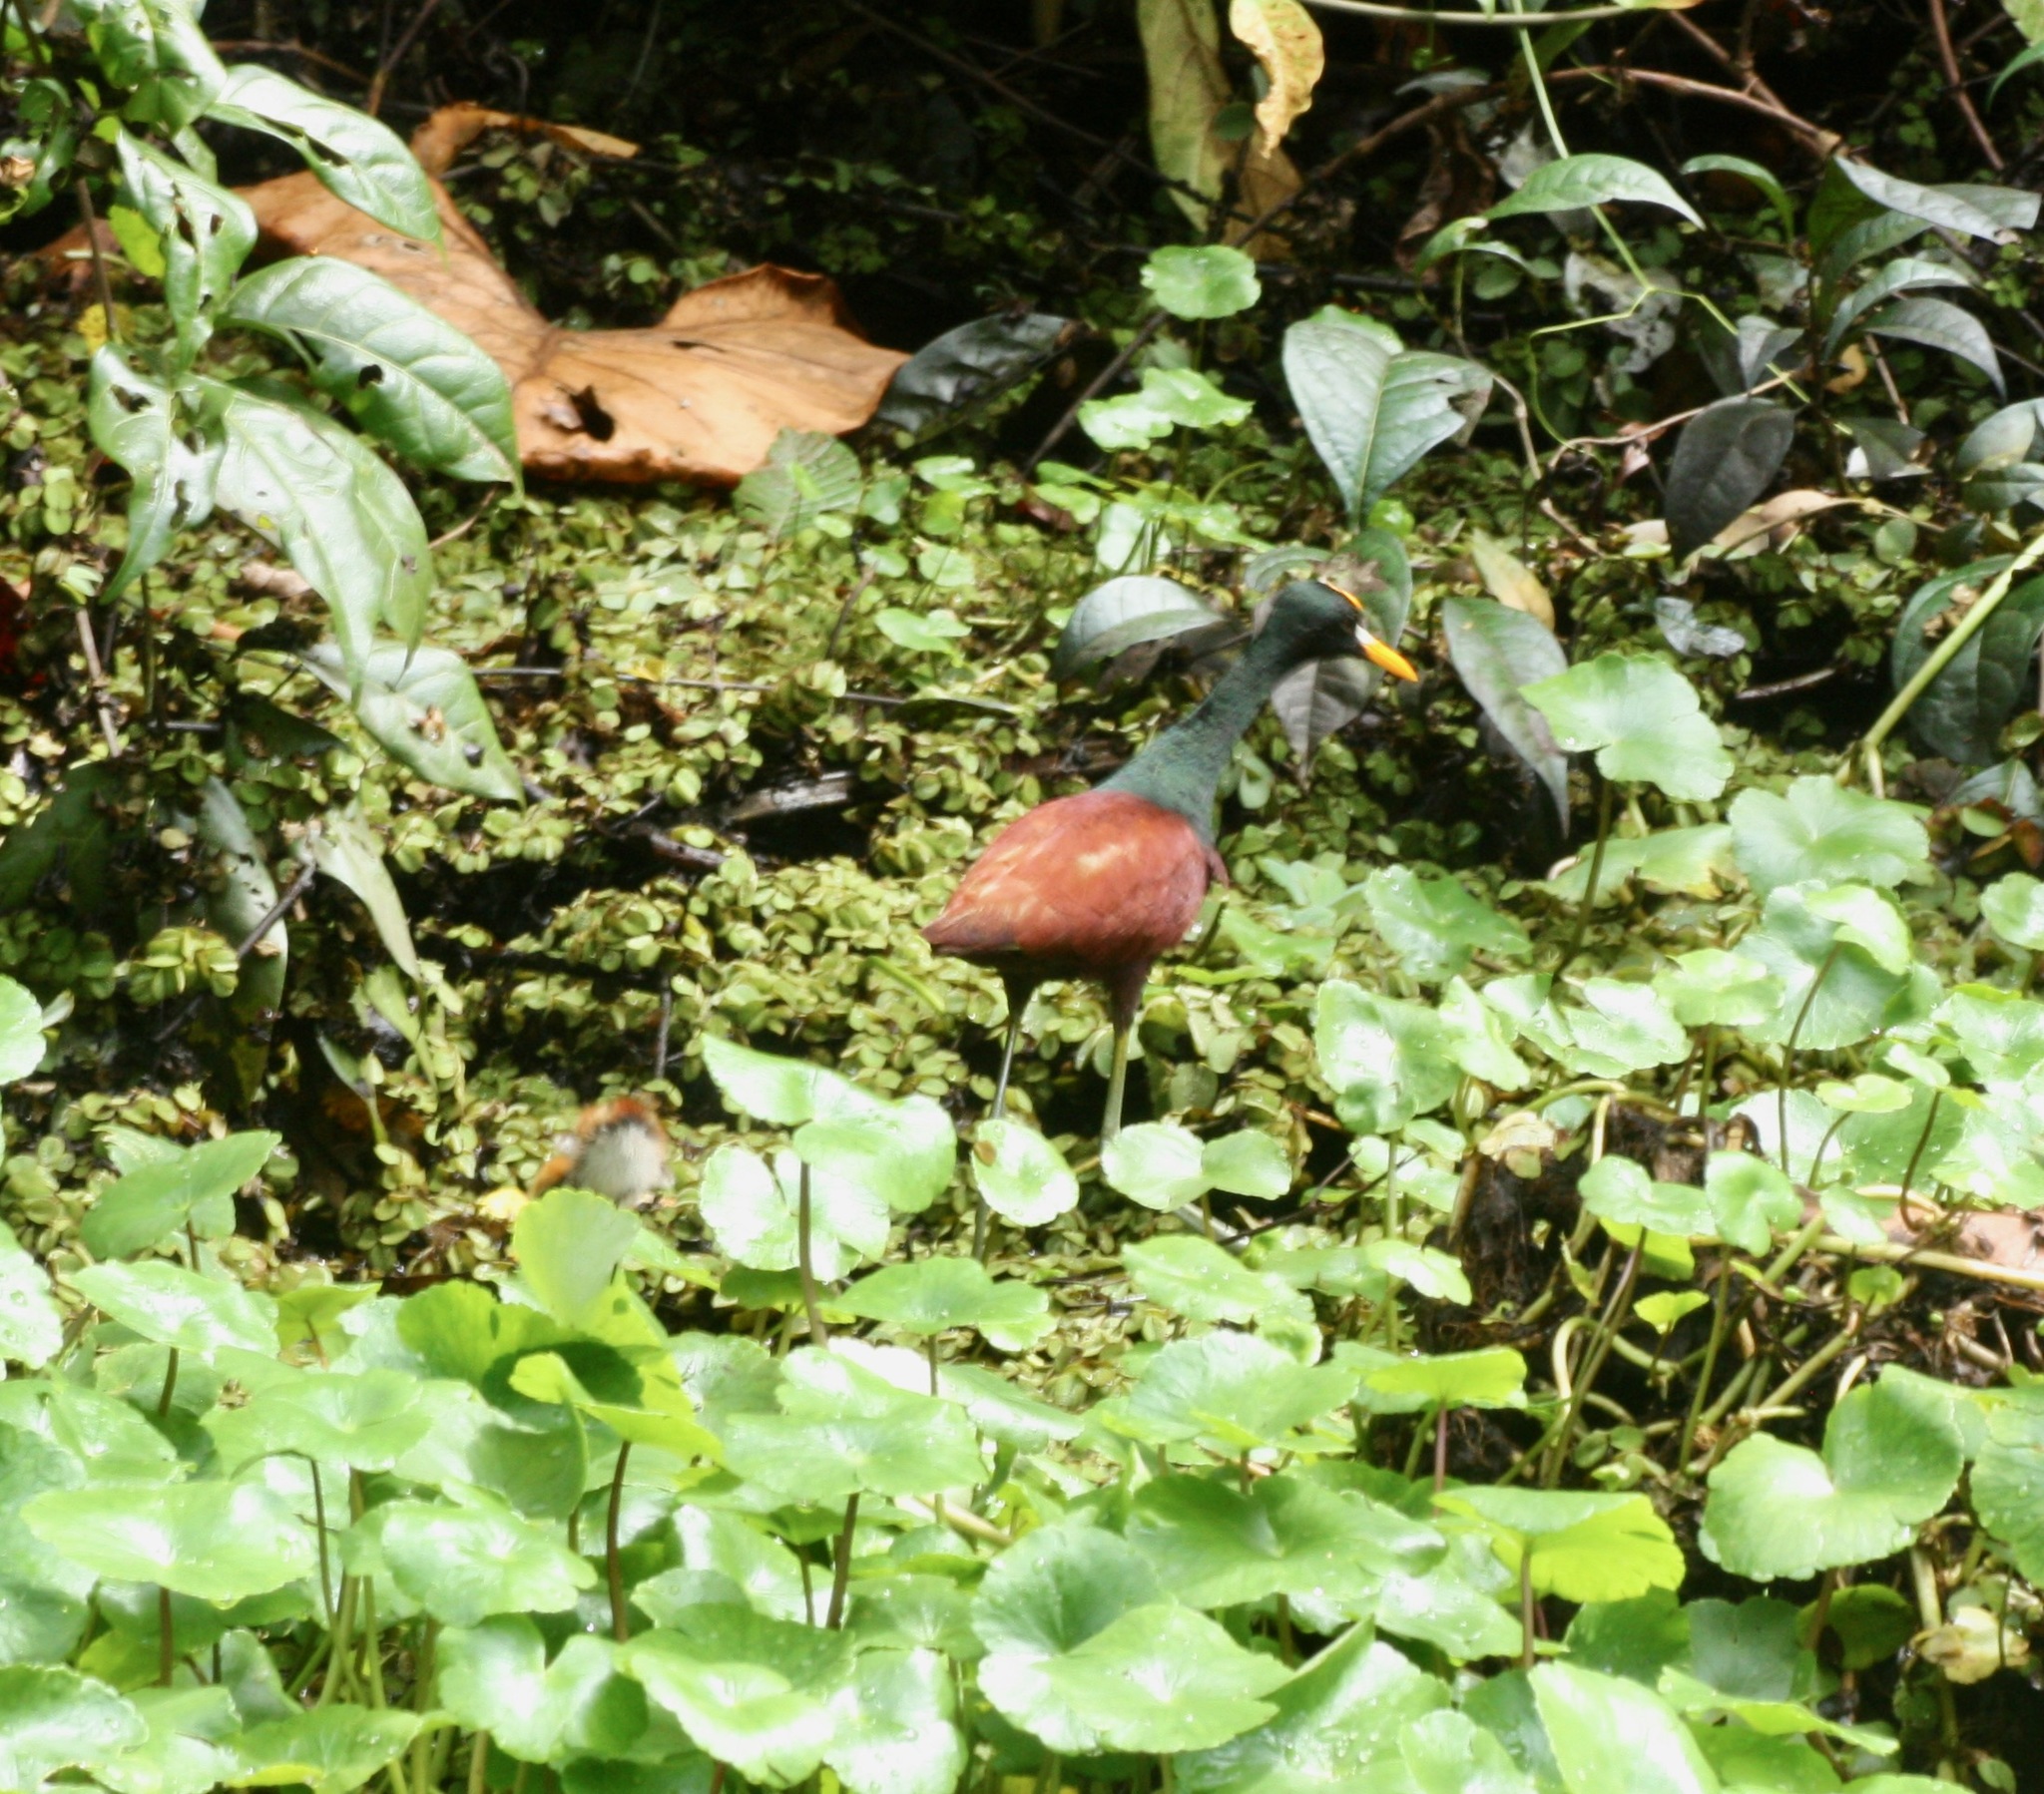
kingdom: Animalia
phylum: Chordata
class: Aves
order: Charadriiformes
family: Jacanidae
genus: Jacana
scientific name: Jacana spinosa
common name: Northern jacana
